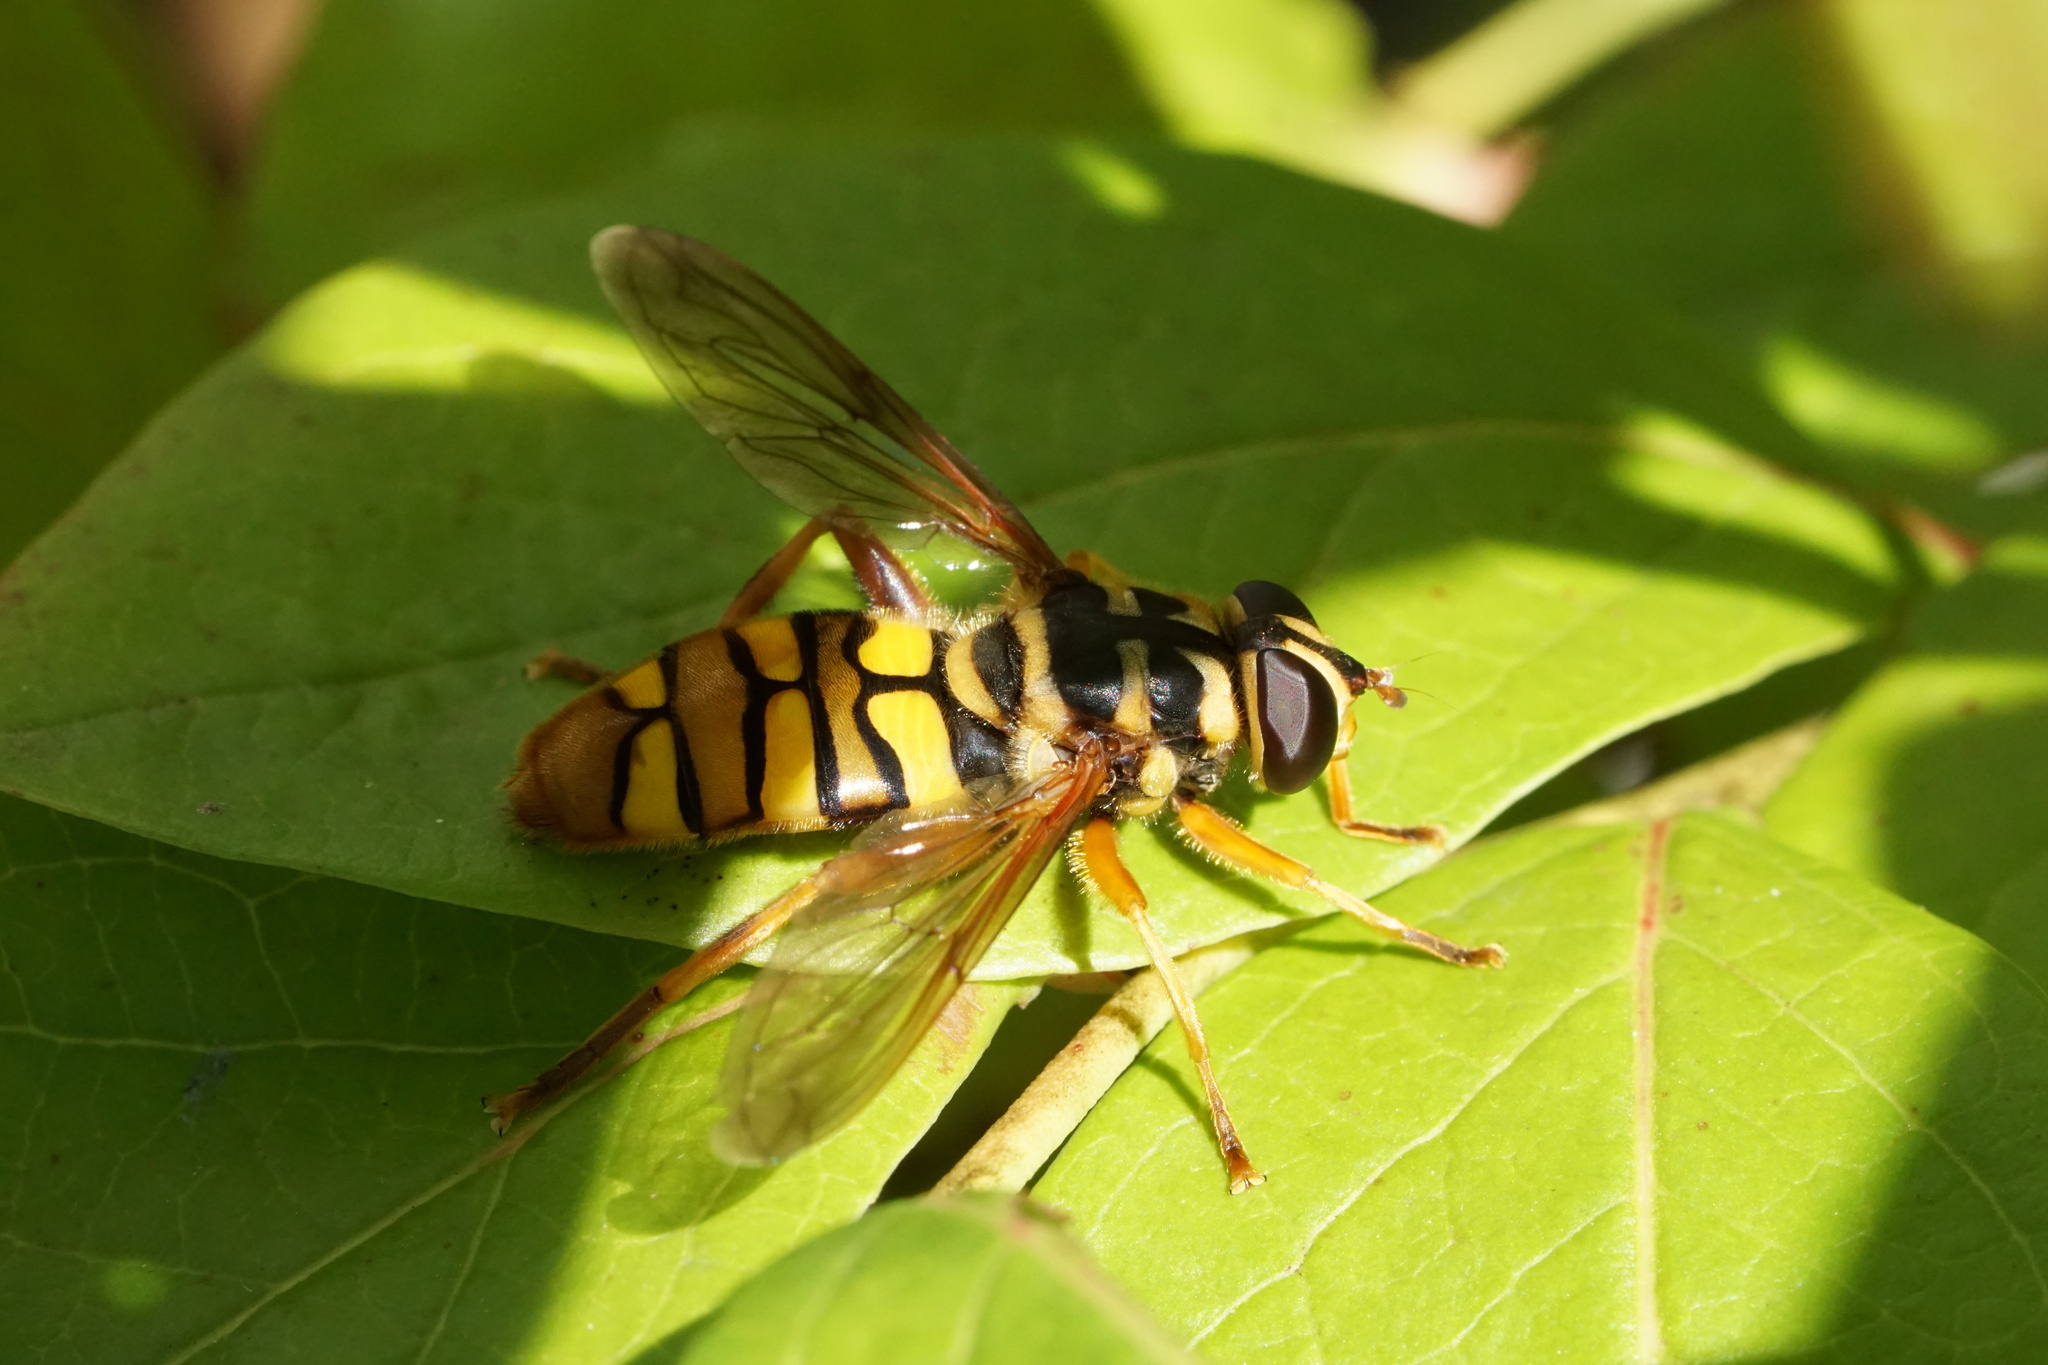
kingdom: Animalia
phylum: Arthropoda
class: Insecta
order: Diptera
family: Syrphidae
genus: Milesia
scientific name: Milesia virginiensis
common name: Virginia giant
